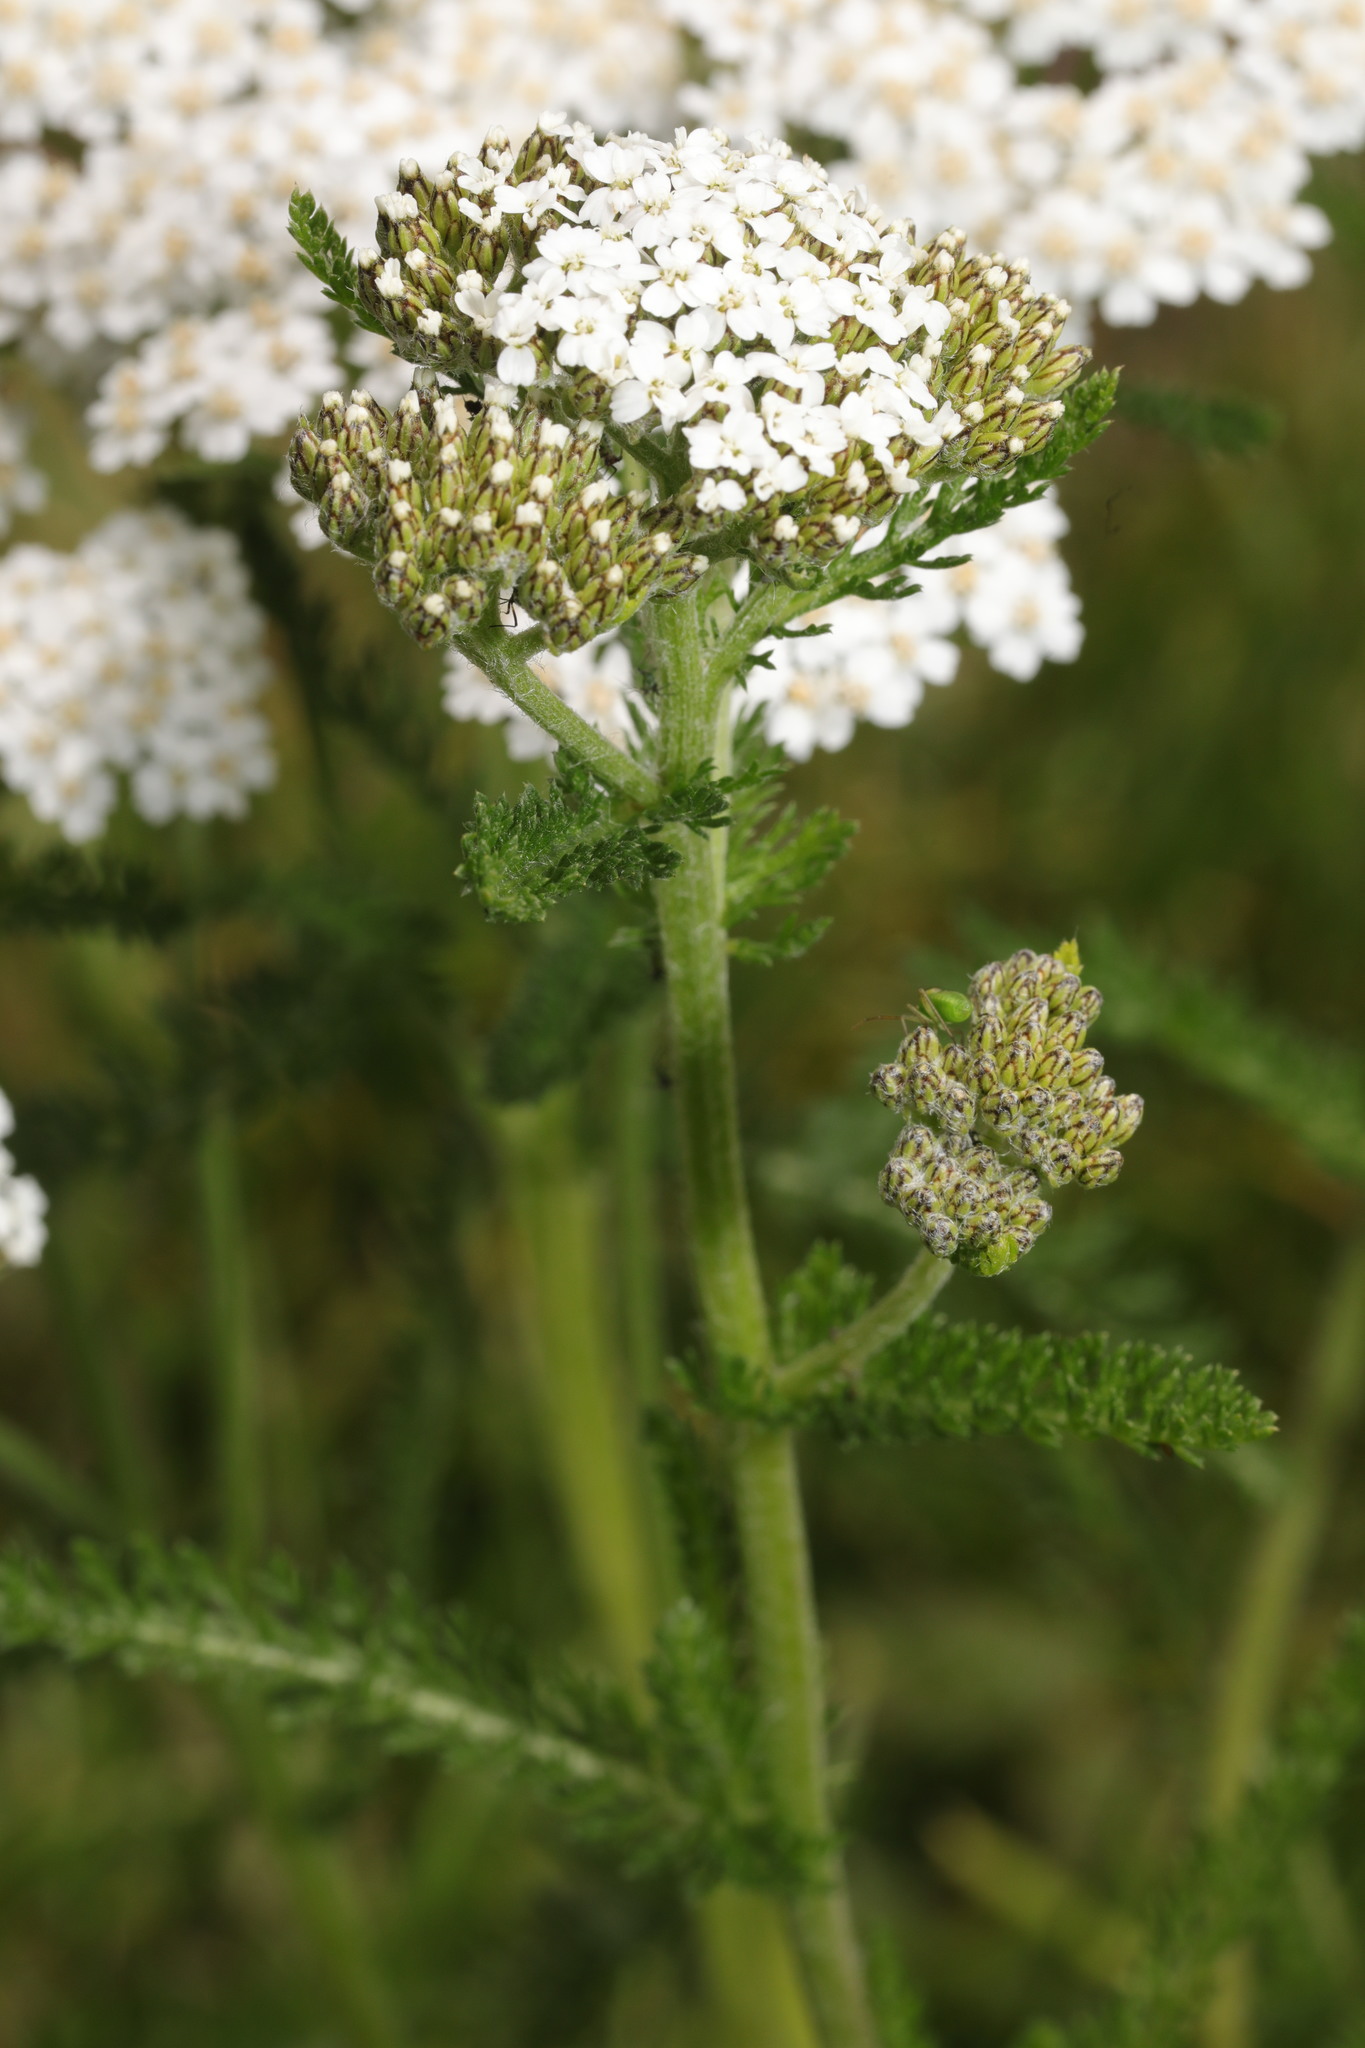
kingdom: Plantae
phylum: Tracheophyta
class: Magnoliopsida
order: Asterales
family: Asteraceae
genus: Achillea
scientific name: Achillea millefolium
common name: Yarrow
